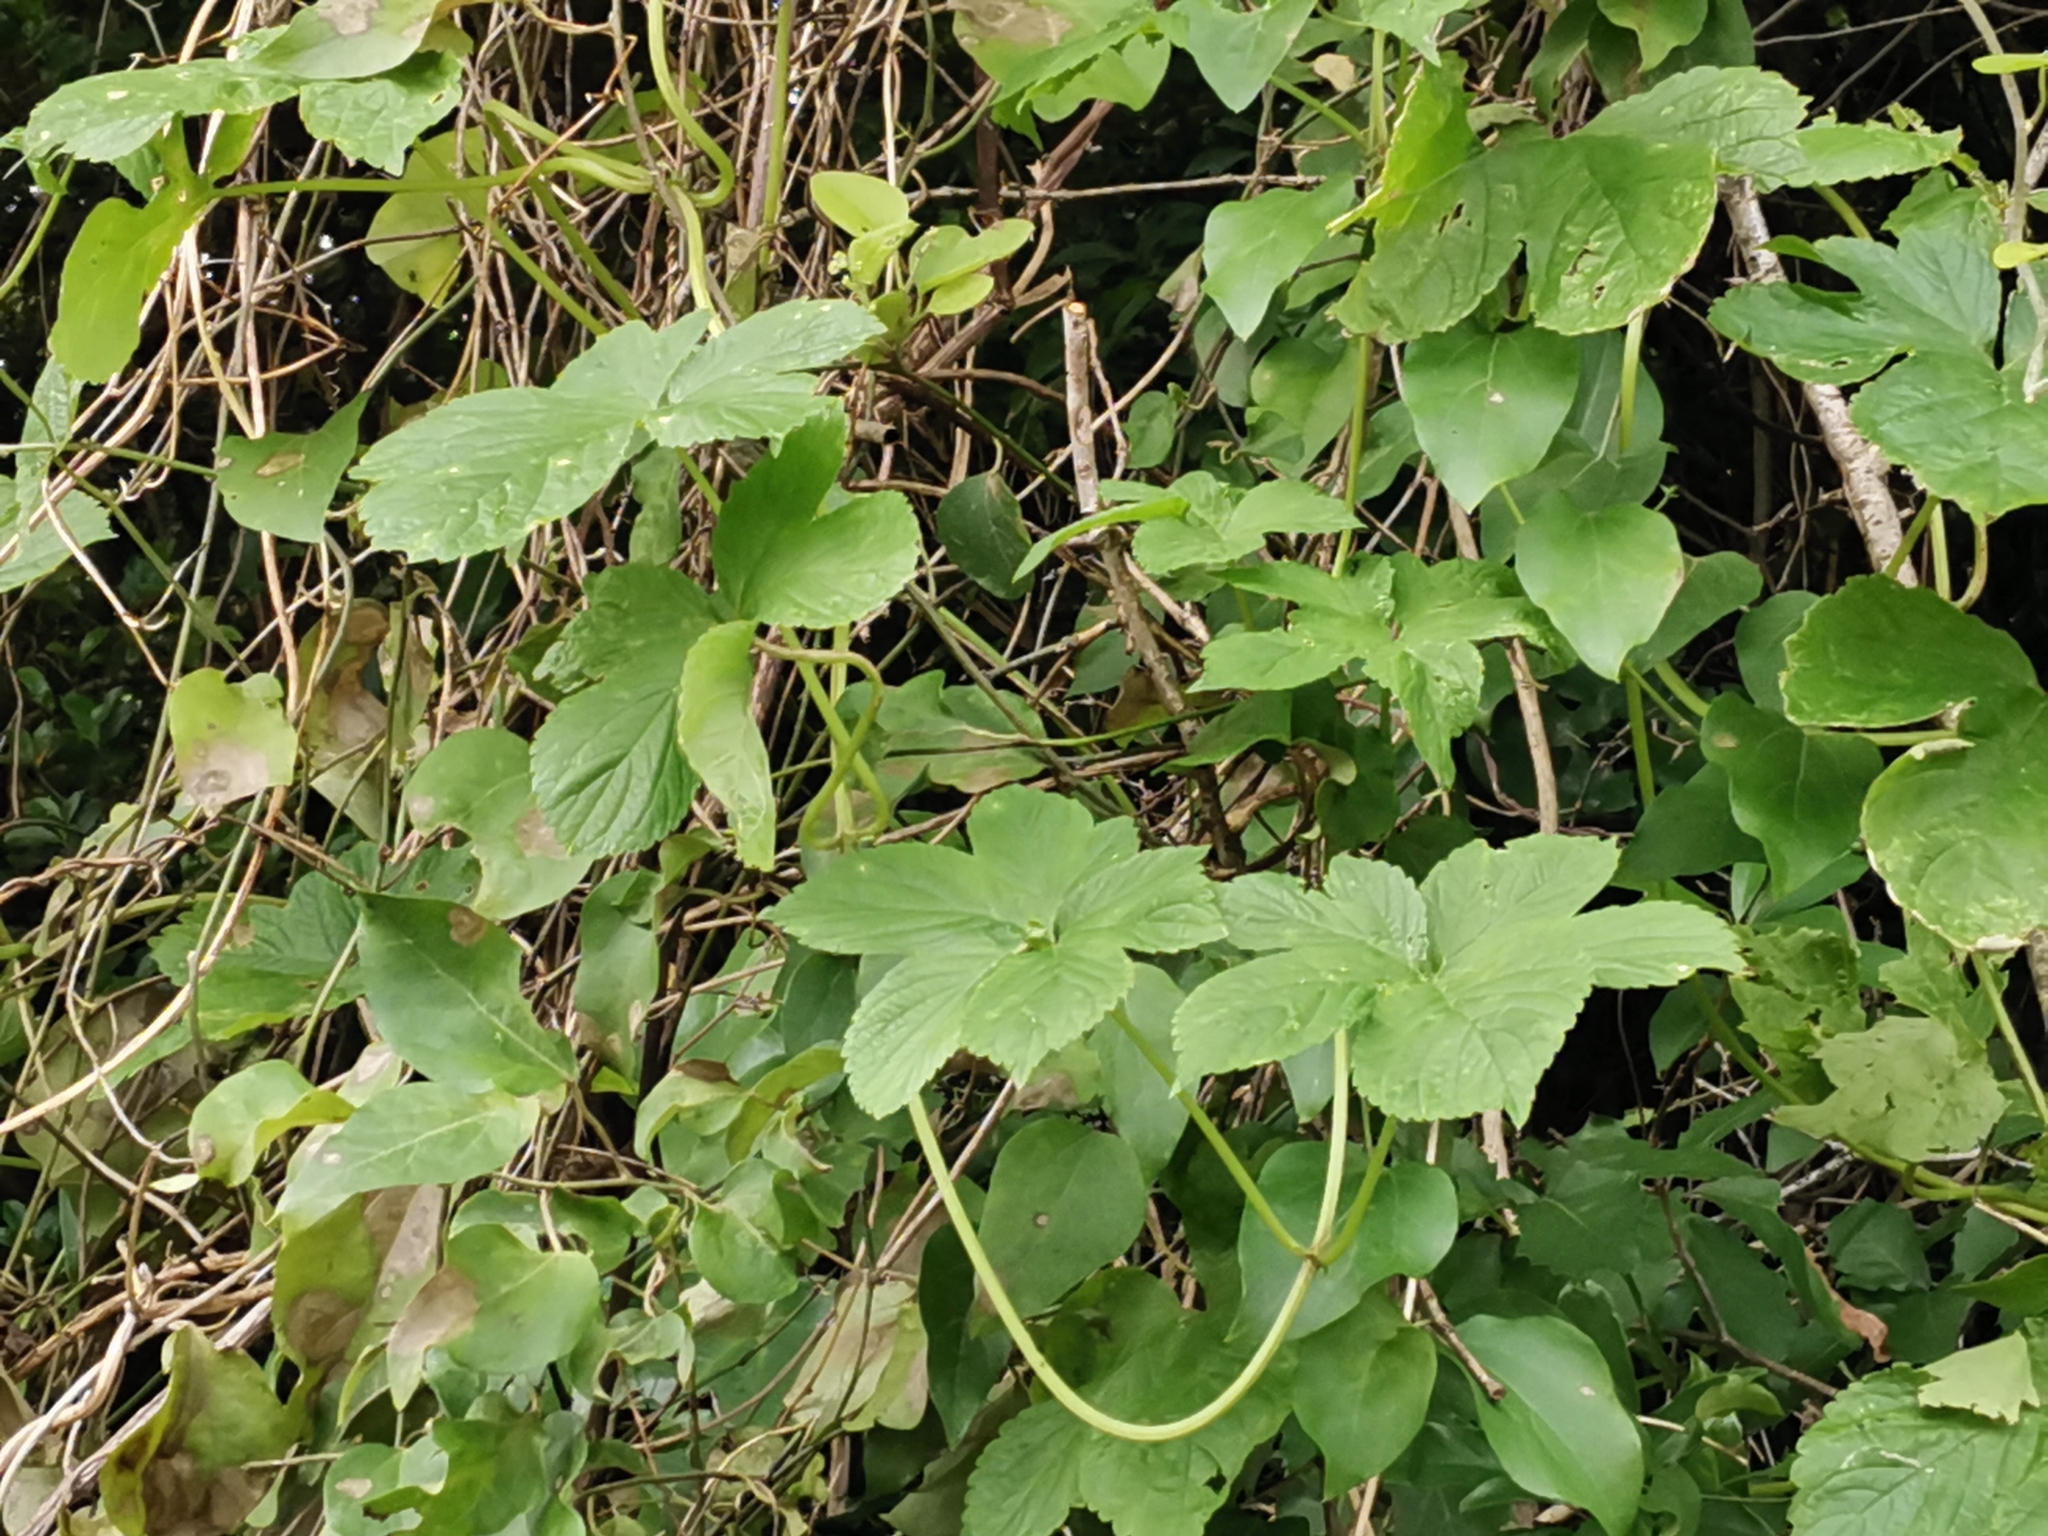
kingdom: Plantae
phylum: Tracheophyta
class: Magnoliopsida
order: Rosales
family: Cannabaceae
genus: Humulus
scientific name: Humulus scandens
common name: Japanese hop
